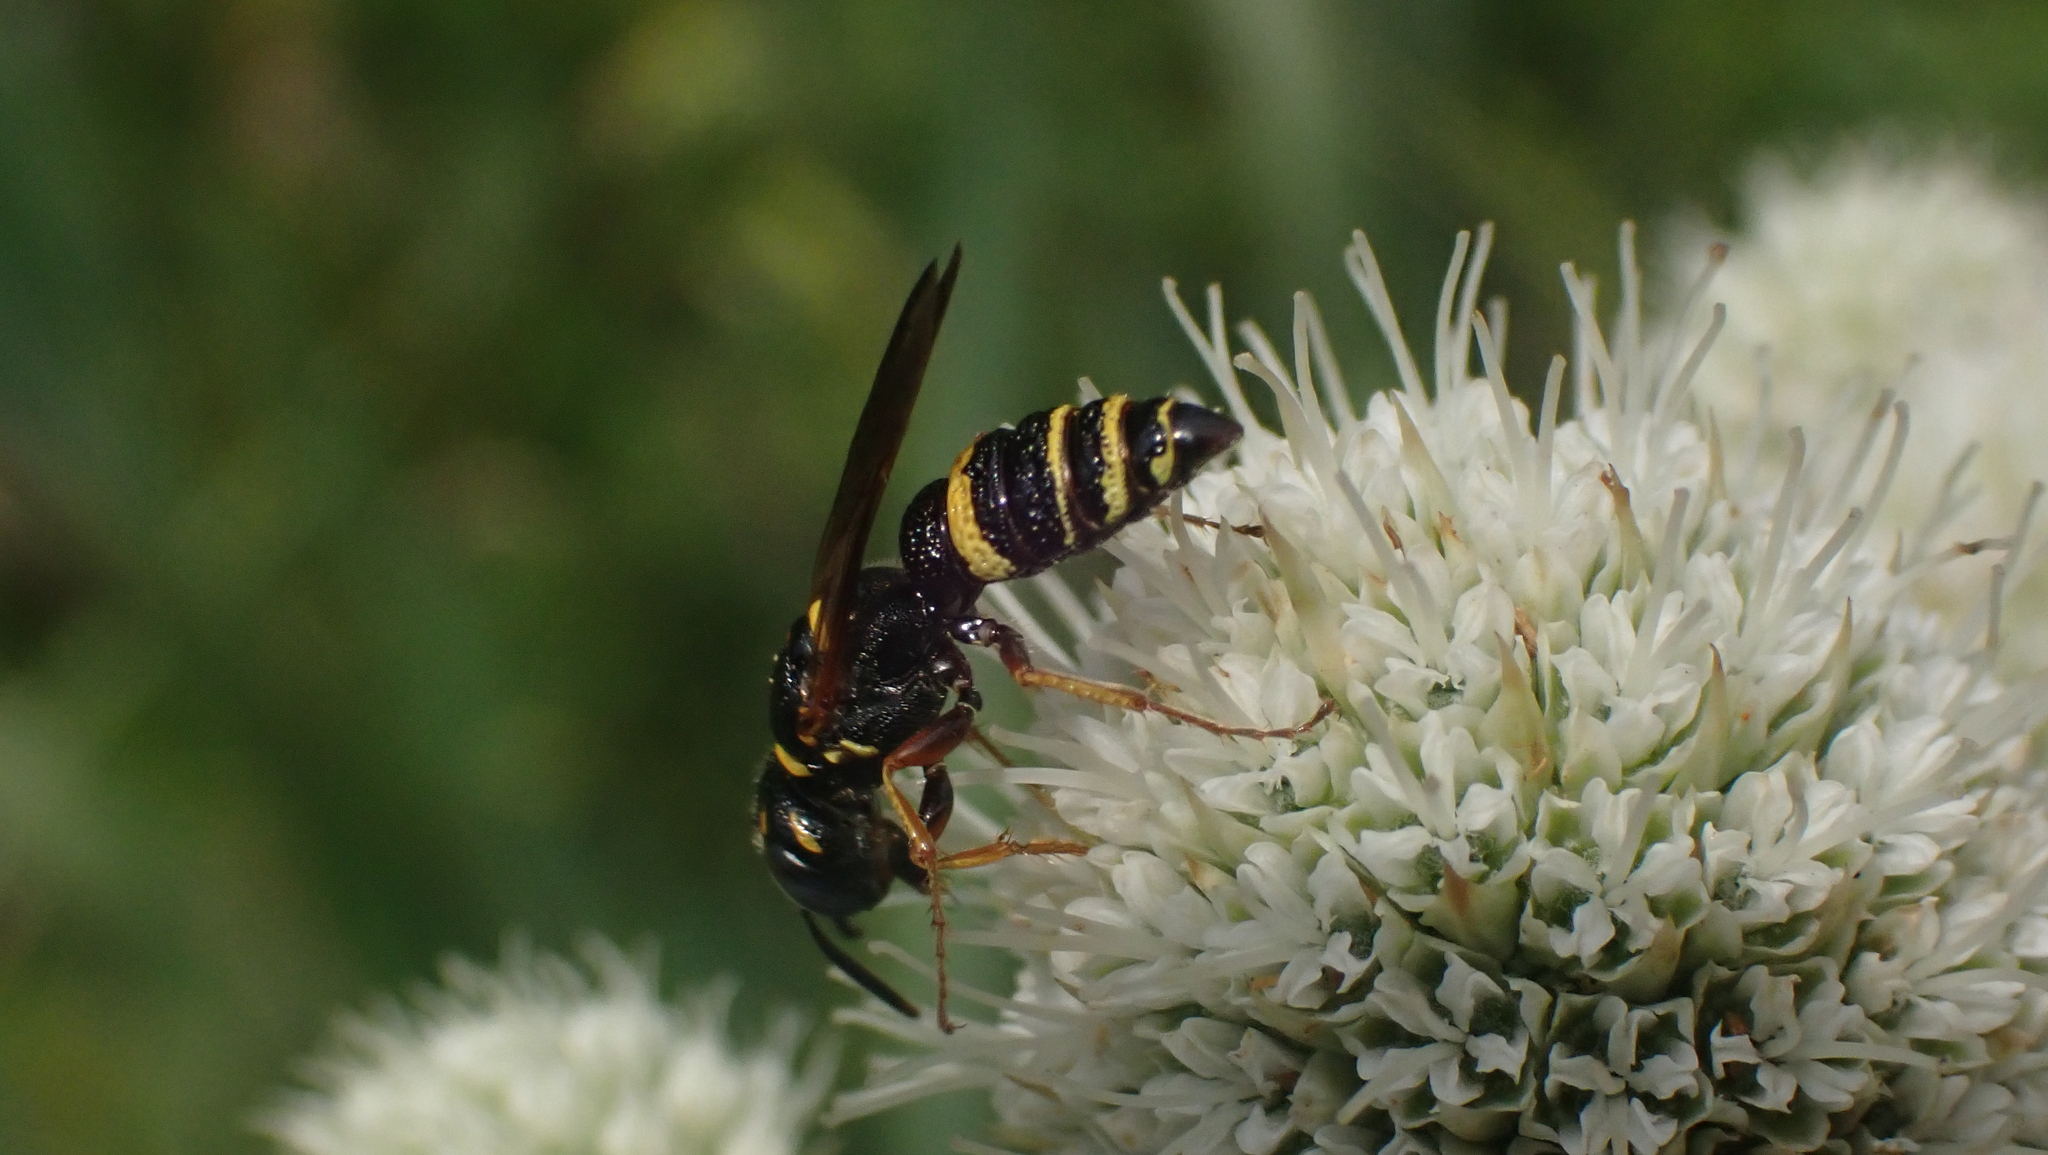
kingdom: Animalia
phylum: Arthropoda
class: Insecta
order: Hymenoptera
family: Crabronidae
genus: Philanthus
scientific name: Philanthus gibbosus
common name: Humped beewolf
